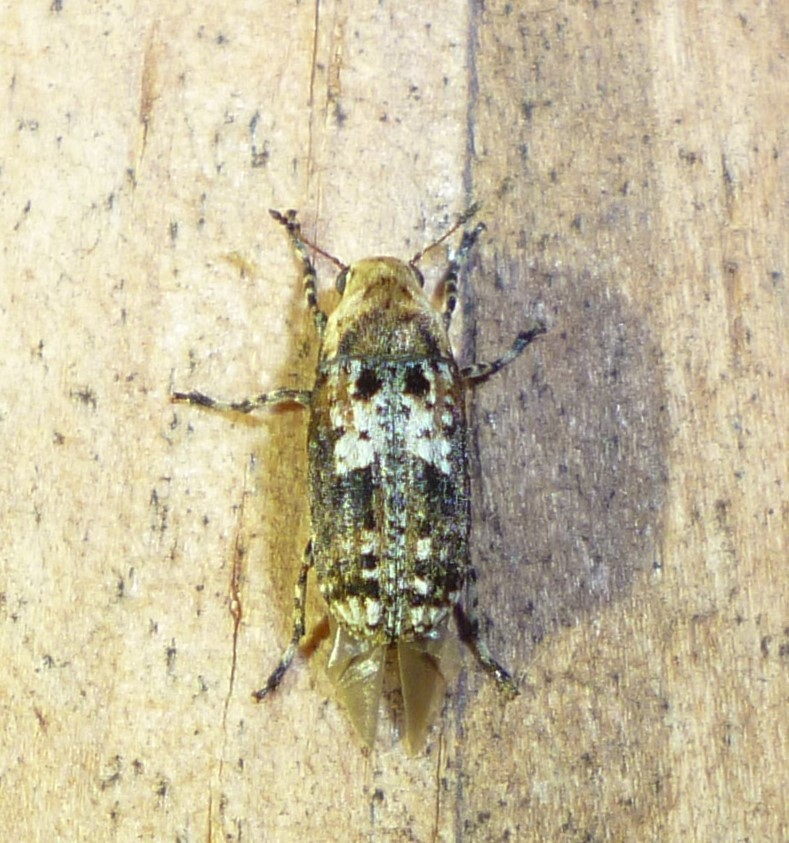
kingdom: Animalia
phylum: Arthropoda
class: Insecta
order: Coleoptera
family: Anthribidae
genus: Euparius
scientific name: Euparius paganus
